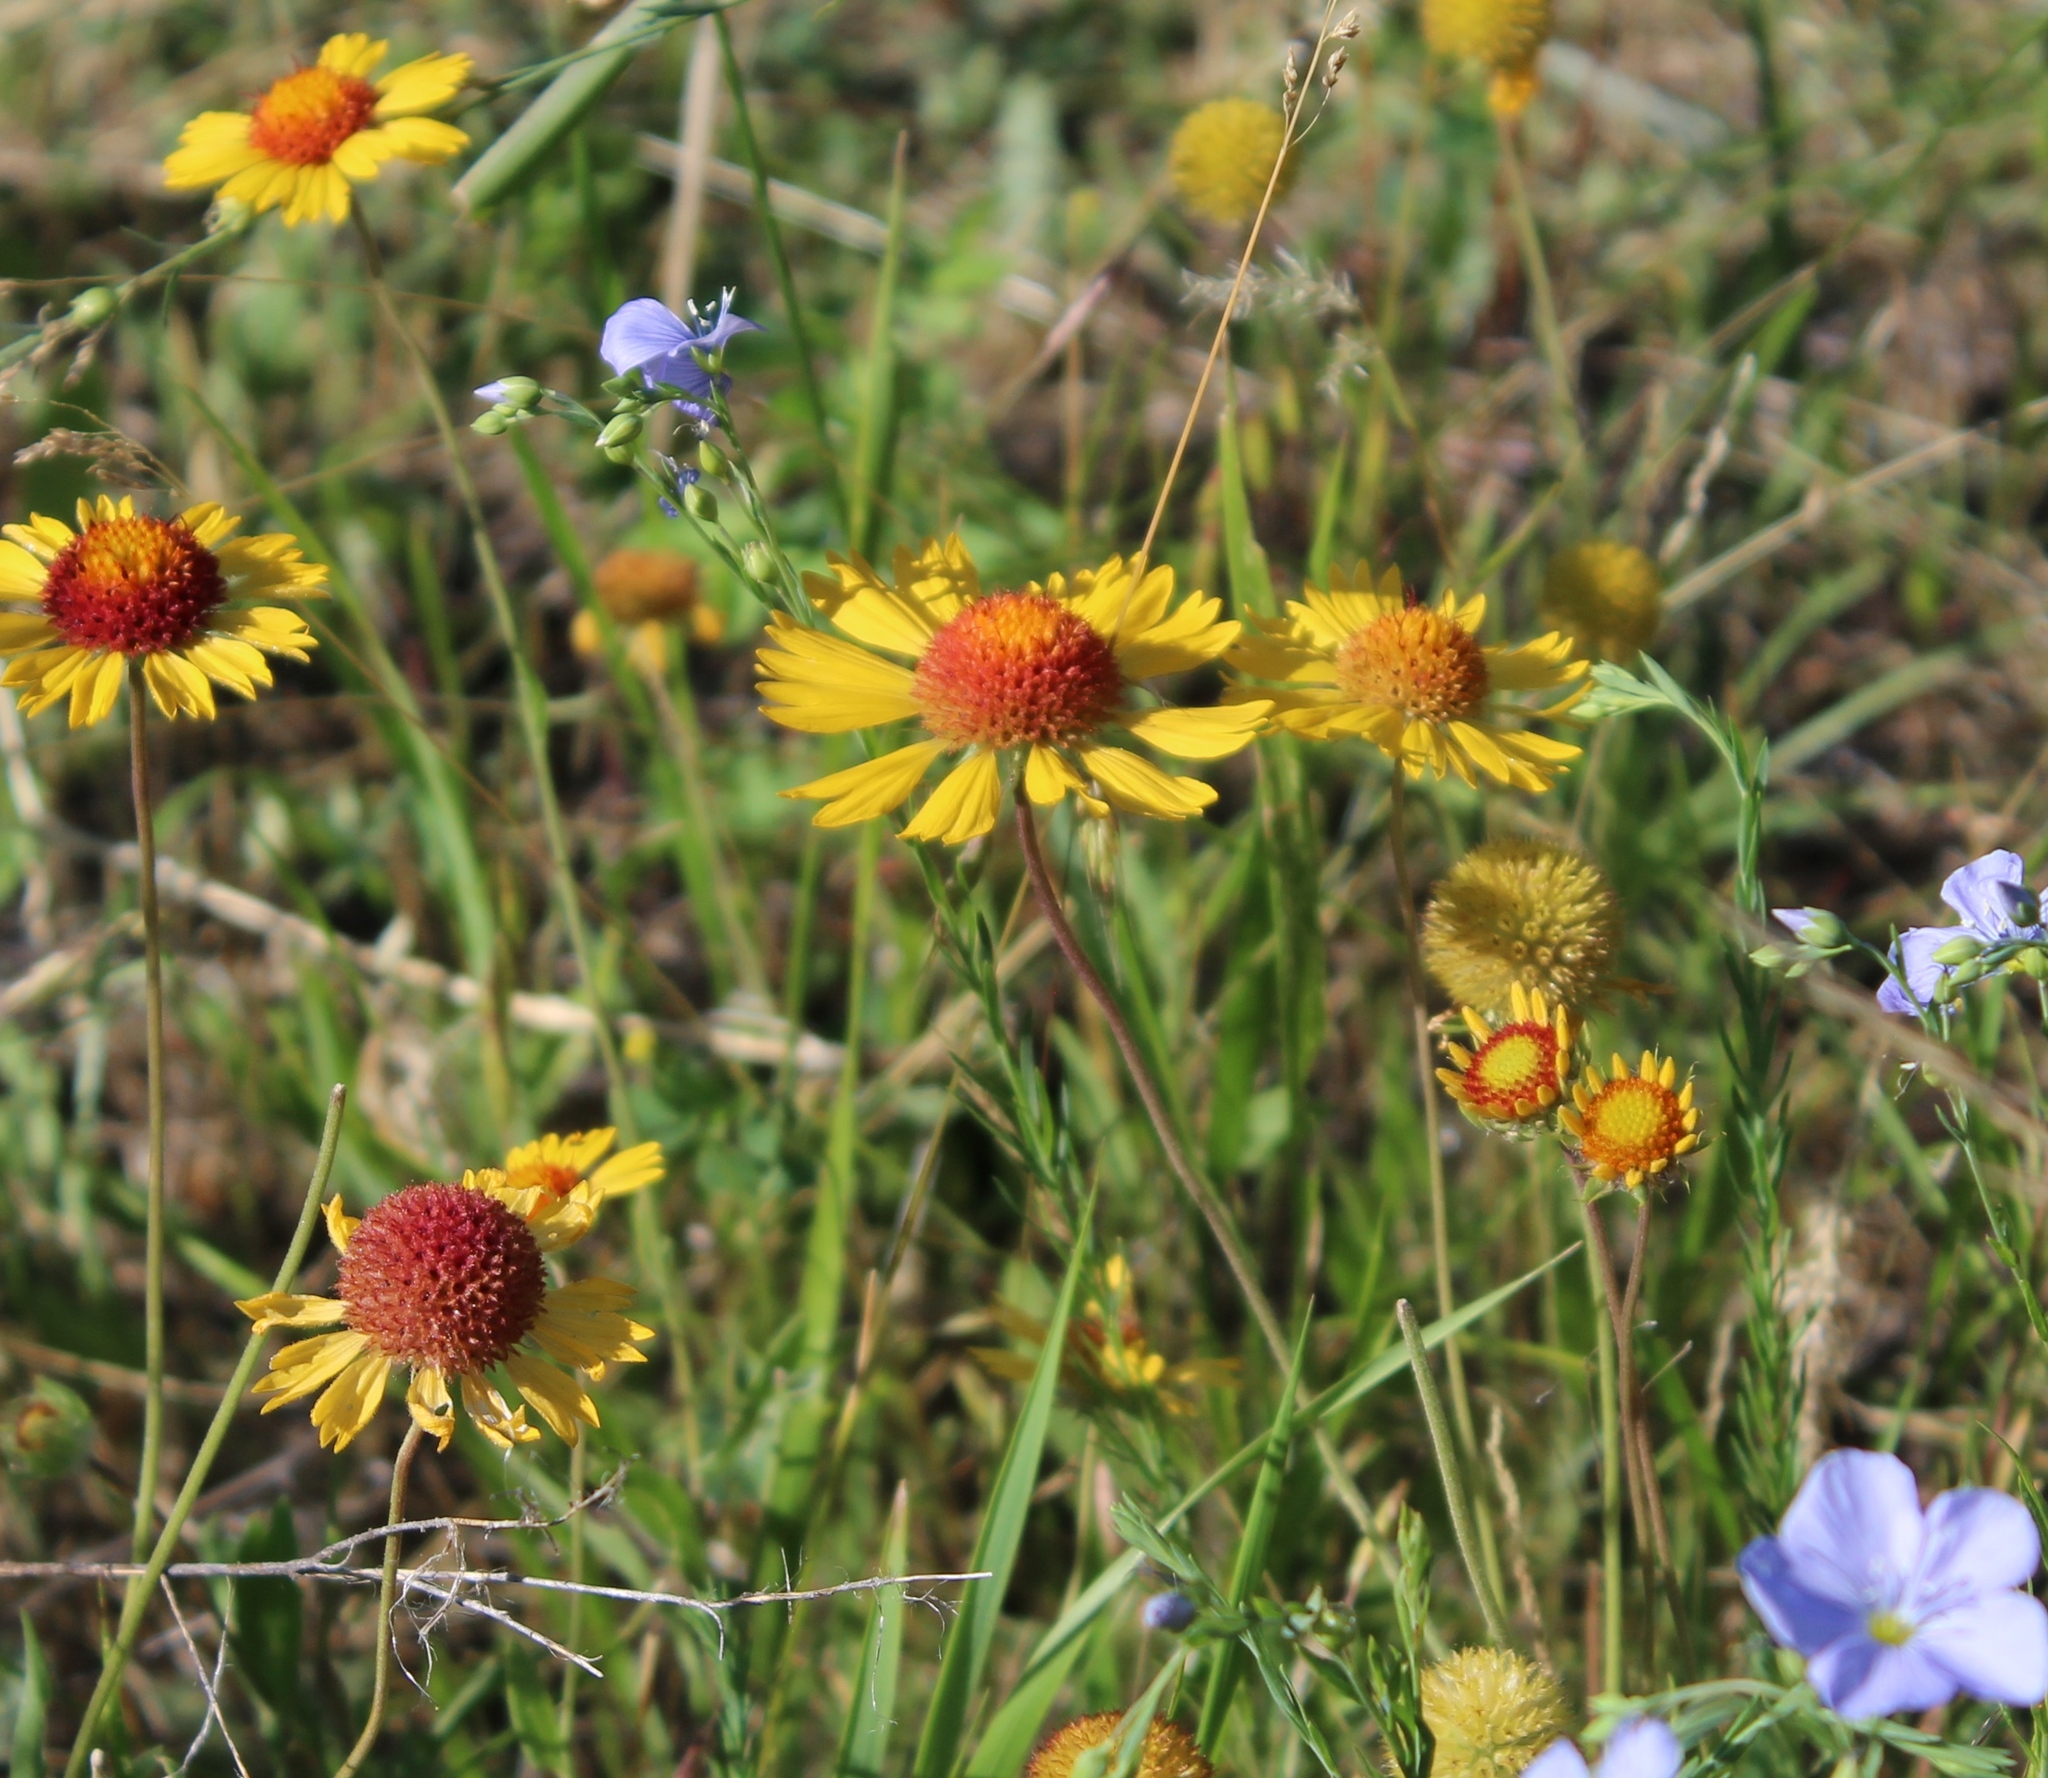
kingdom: Plantae
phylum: Tracheophyta
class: Magnoliopsida
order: Asterales
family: Asteraceae
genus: Gaillardia
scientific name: Gaillardia aristata
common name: Blanket-flower
